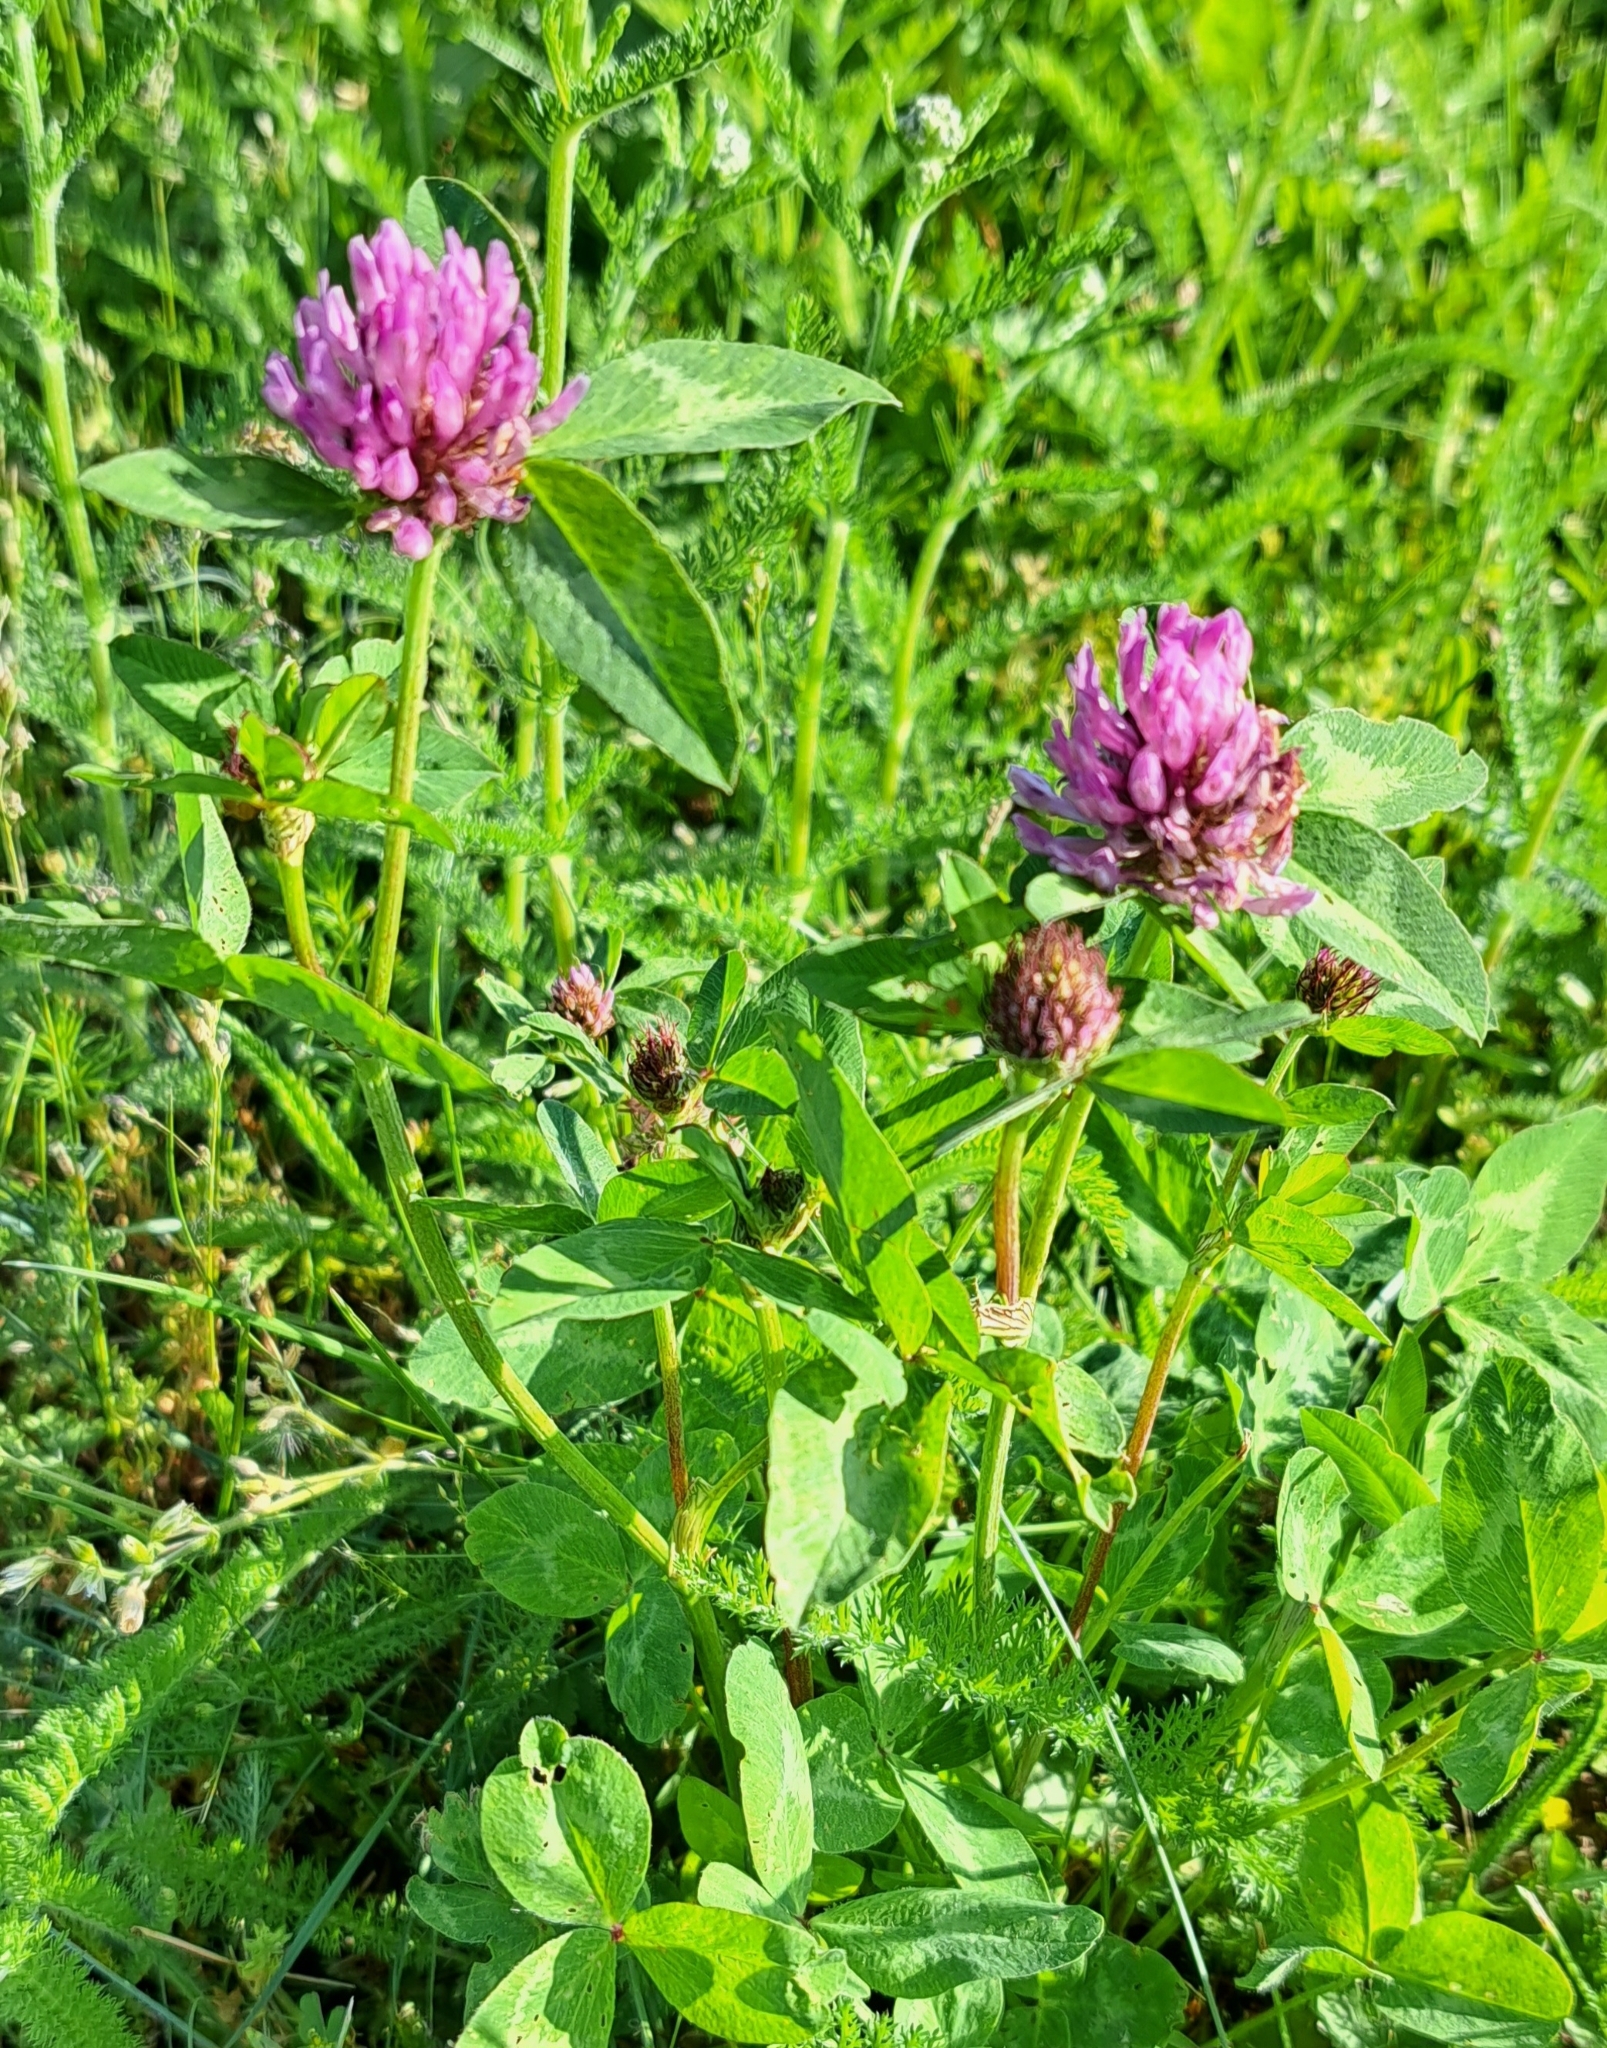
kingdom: Plantae
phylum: Tracheophyta
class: Magnoliopsida
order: Fabales
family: Fabaceae
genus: Trifolium
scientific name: Trifolium pratense
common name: Red clover
